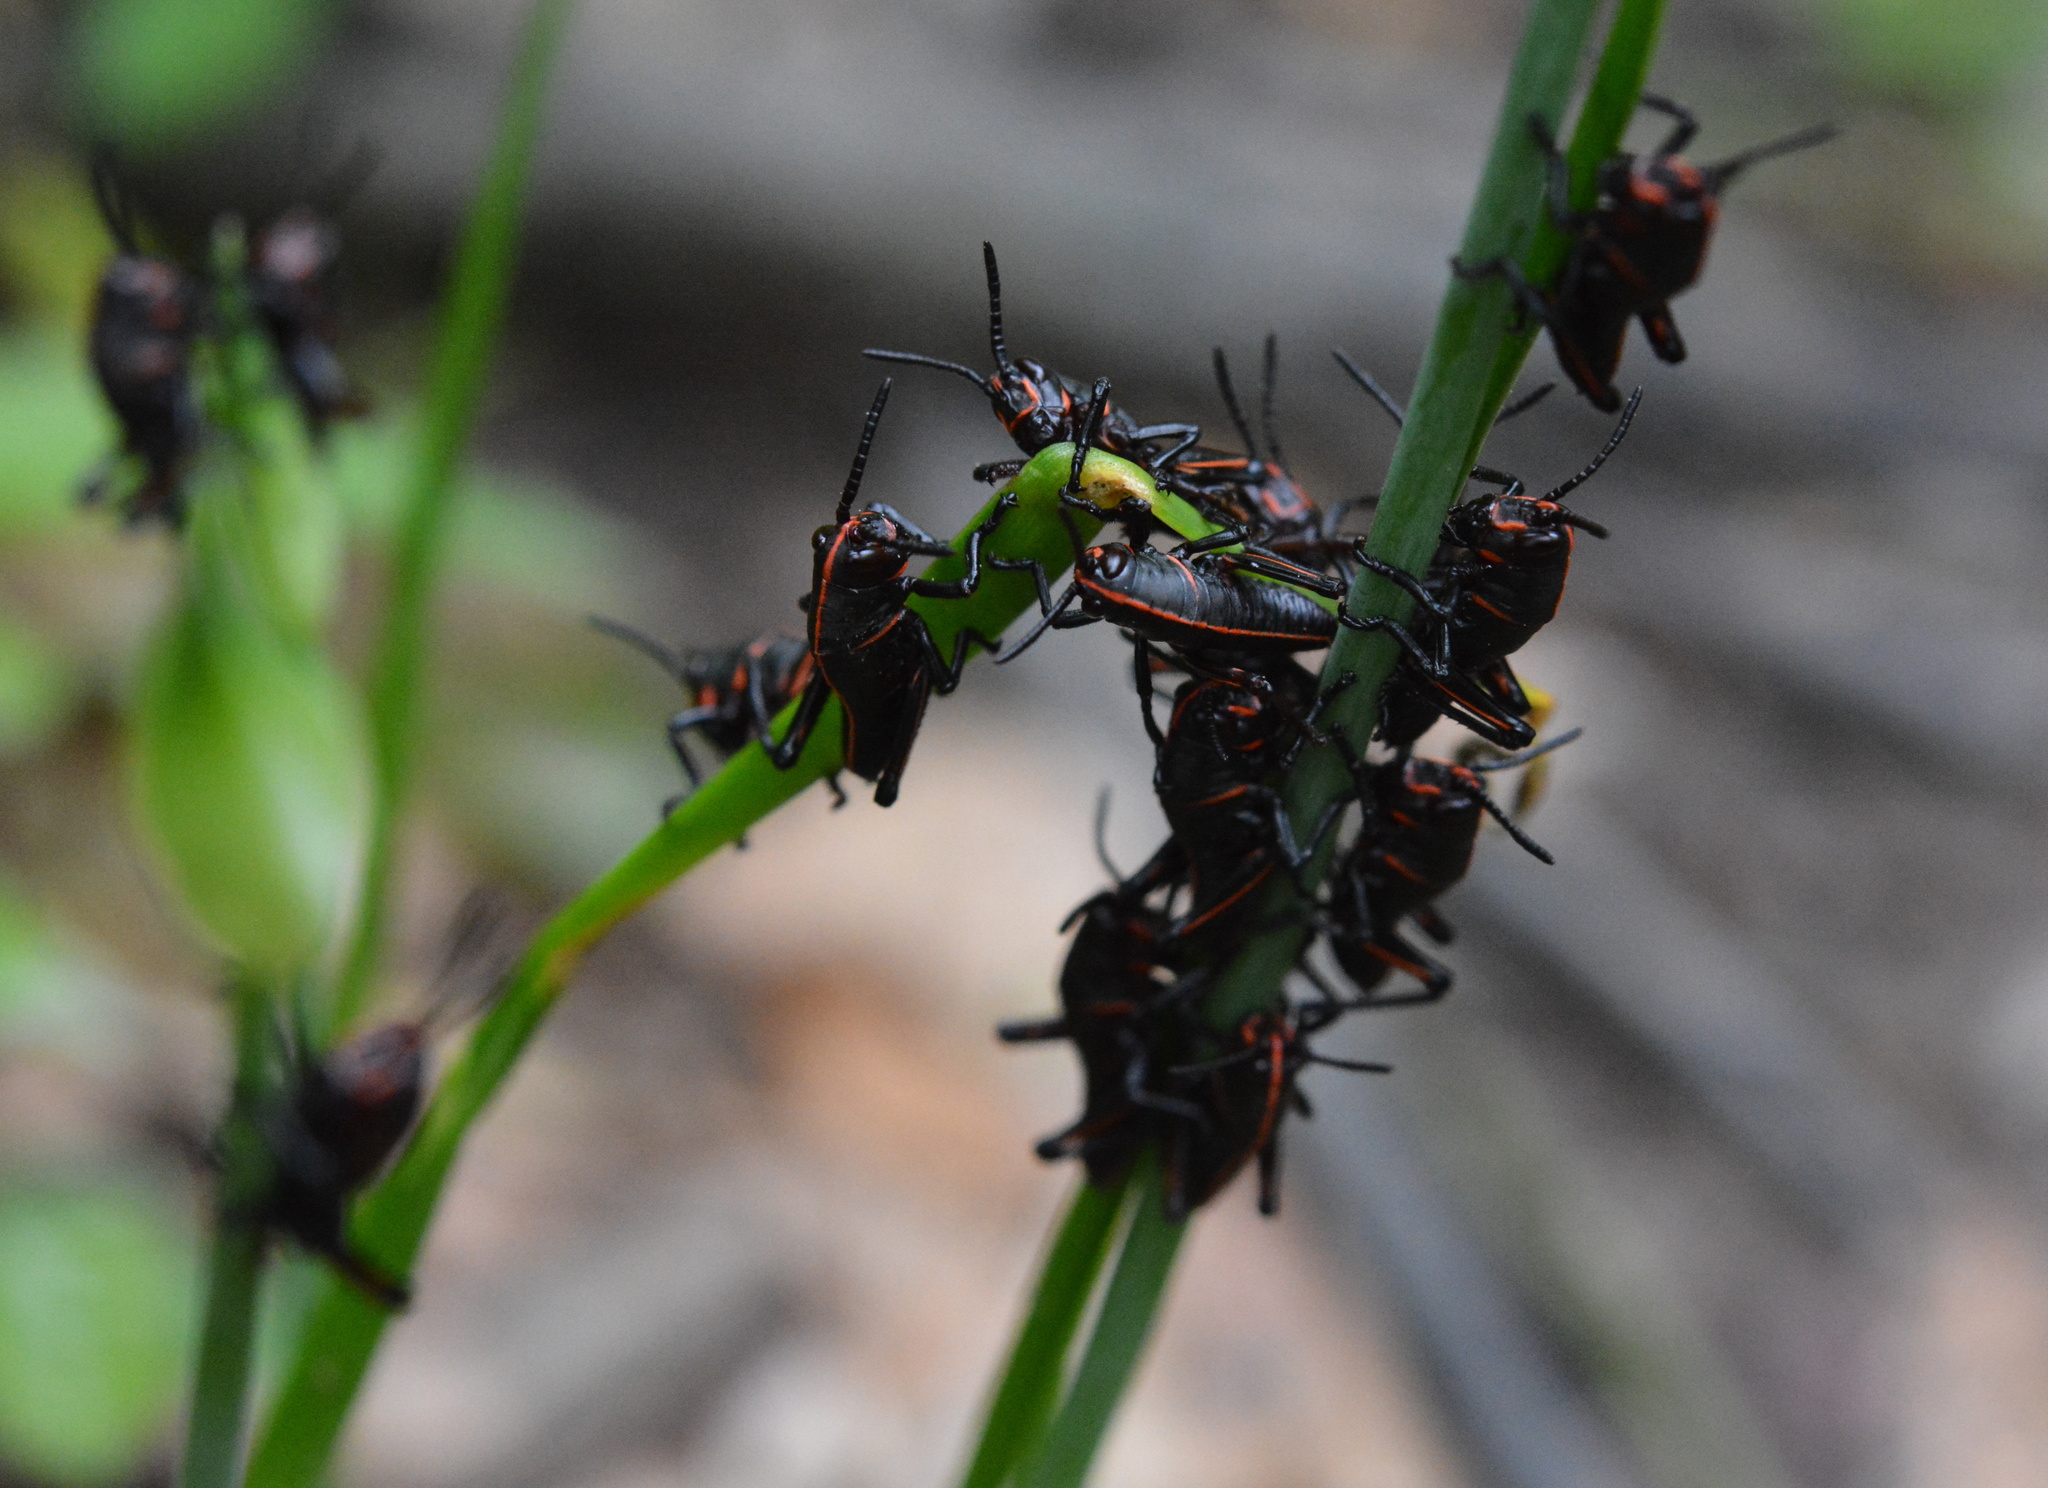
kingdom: Animalia
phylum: Arthropoda
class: Insecta
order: Orthoptera
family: Romaleidae
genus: Romalea
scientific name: Romalea microptera
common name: Eastern lubber grasshopper
